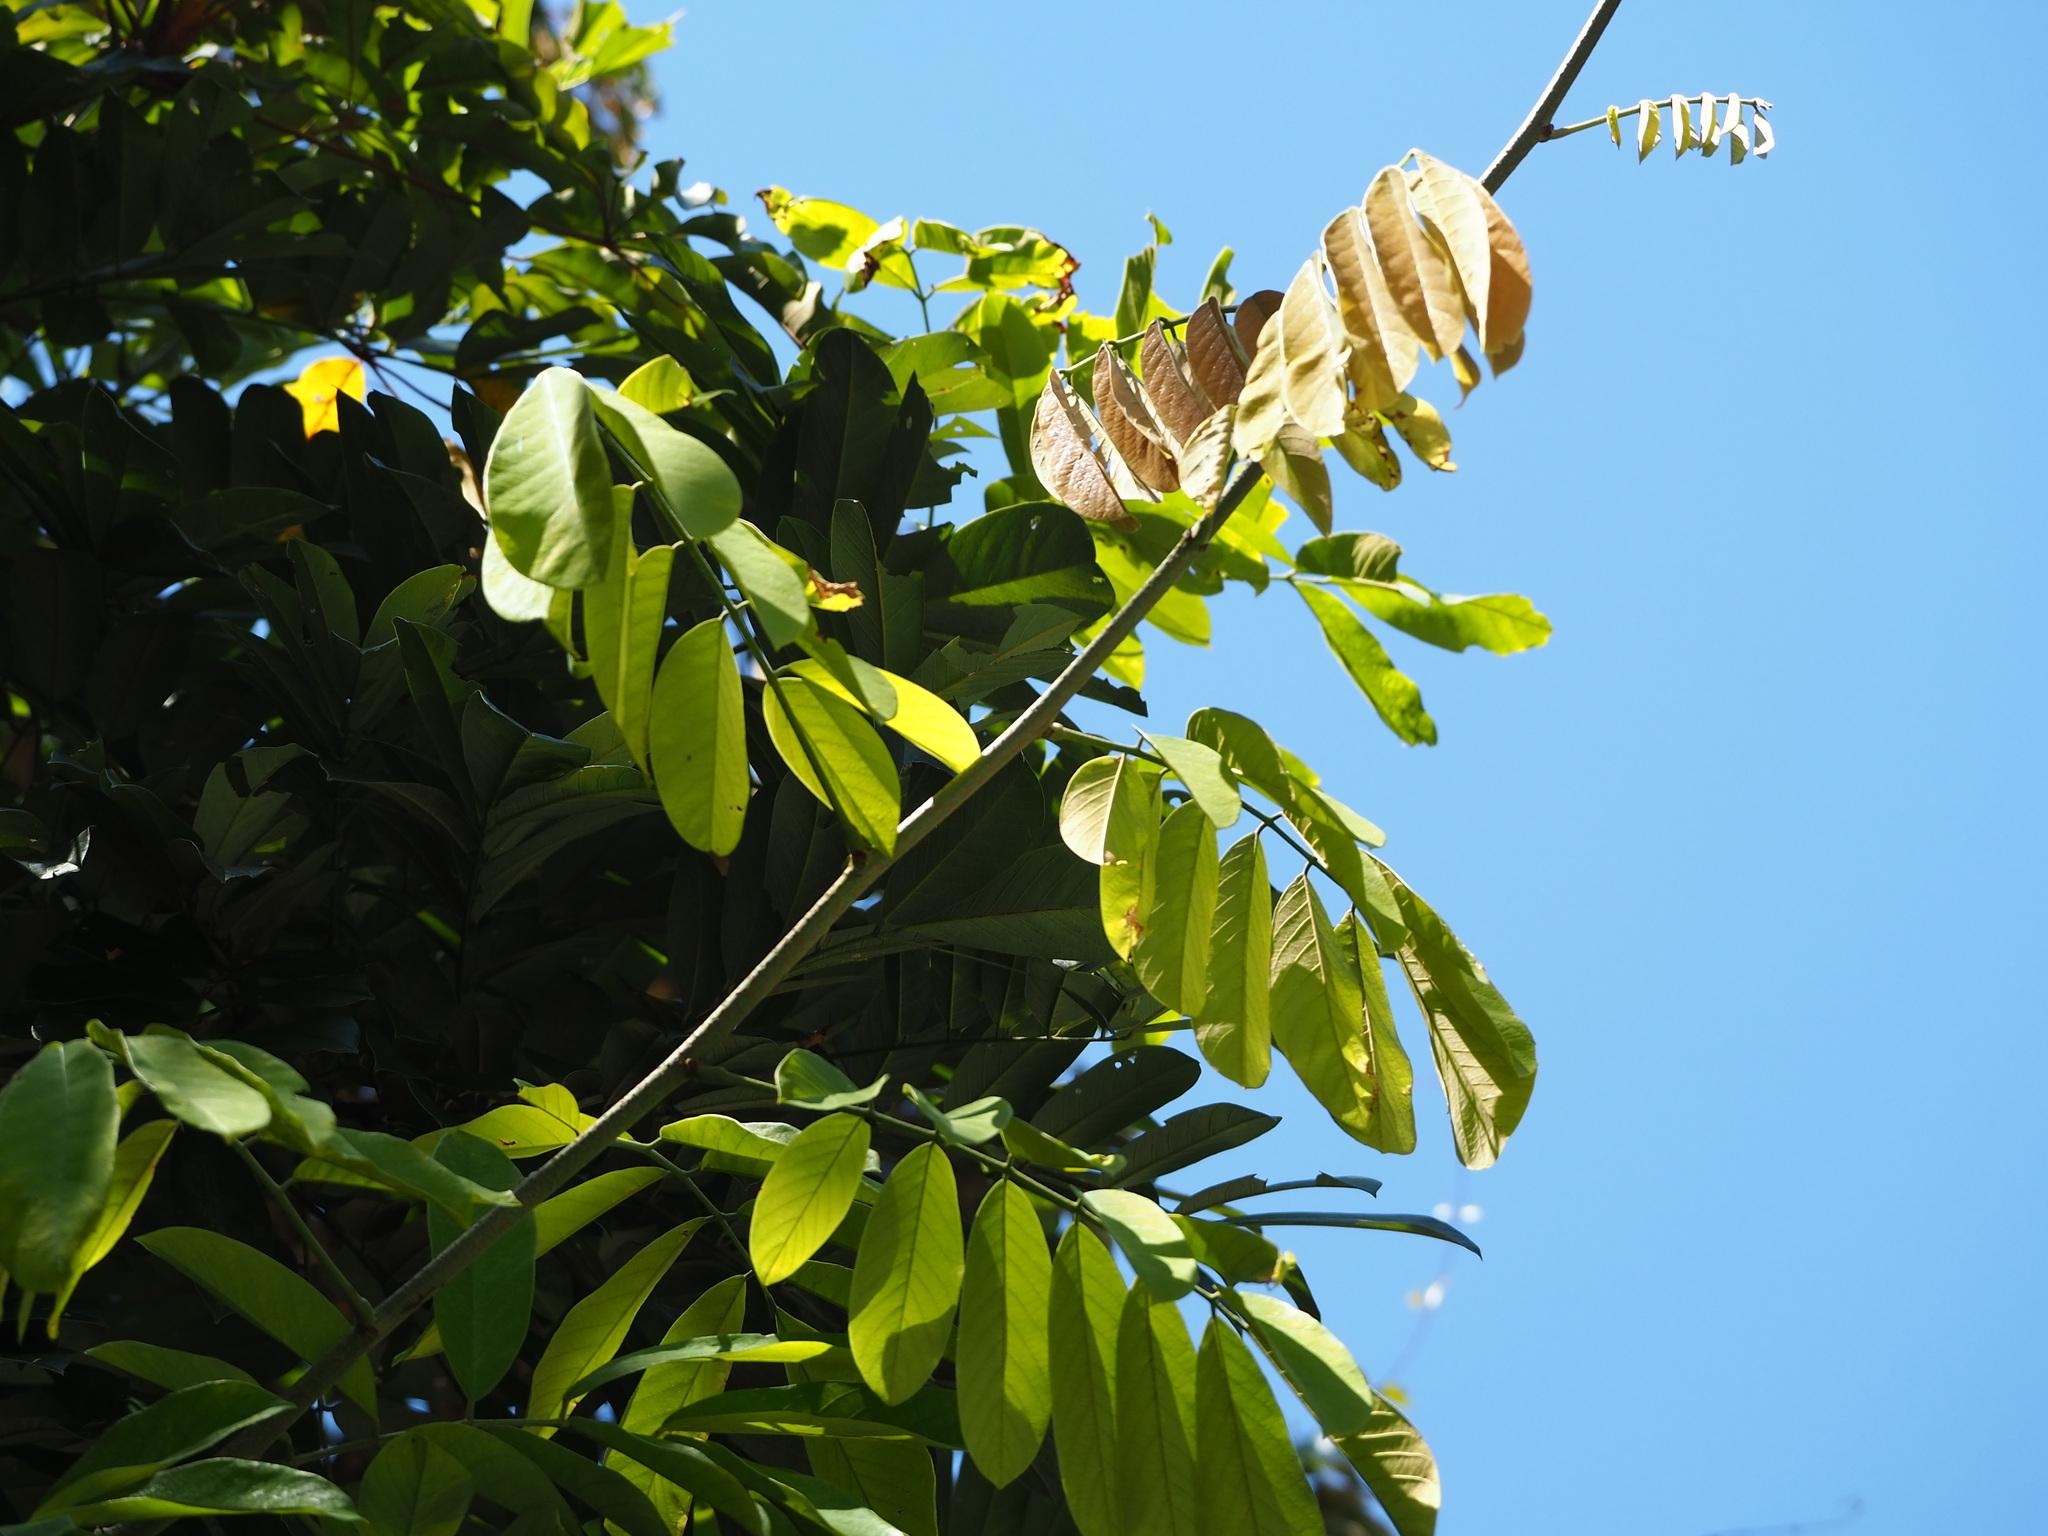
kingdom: Plantae
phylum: Tracheophyta
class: Magnoliopsida
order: Fabales
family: Fabaceae
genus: Millettia
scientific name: Millettia pachycarpa
